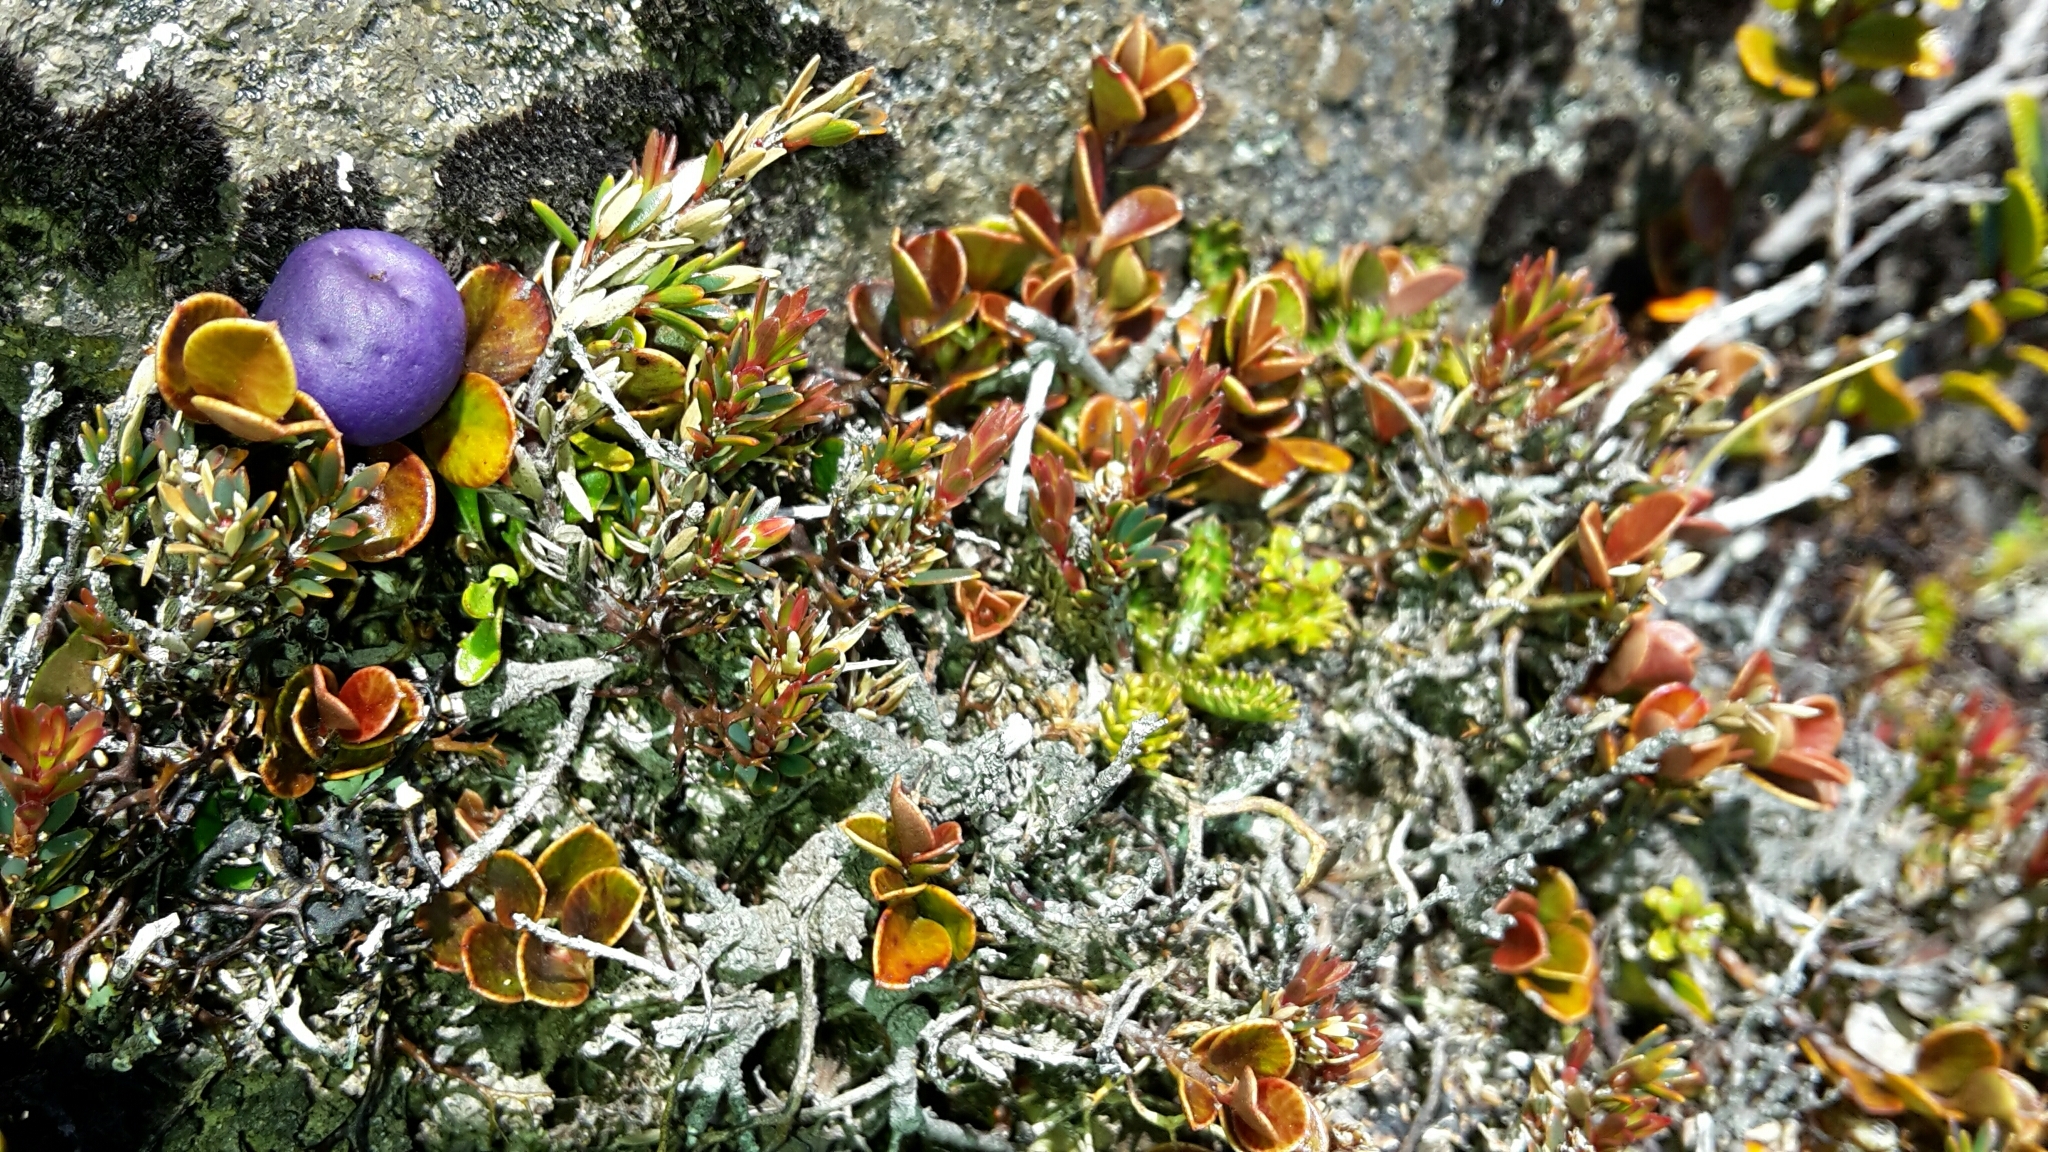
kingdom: Plantae
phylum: Tracheophyta
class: Magnoliopsida
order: Ericales
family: Primulaceae
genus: Myrsine
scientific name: Myrsine nummularia
